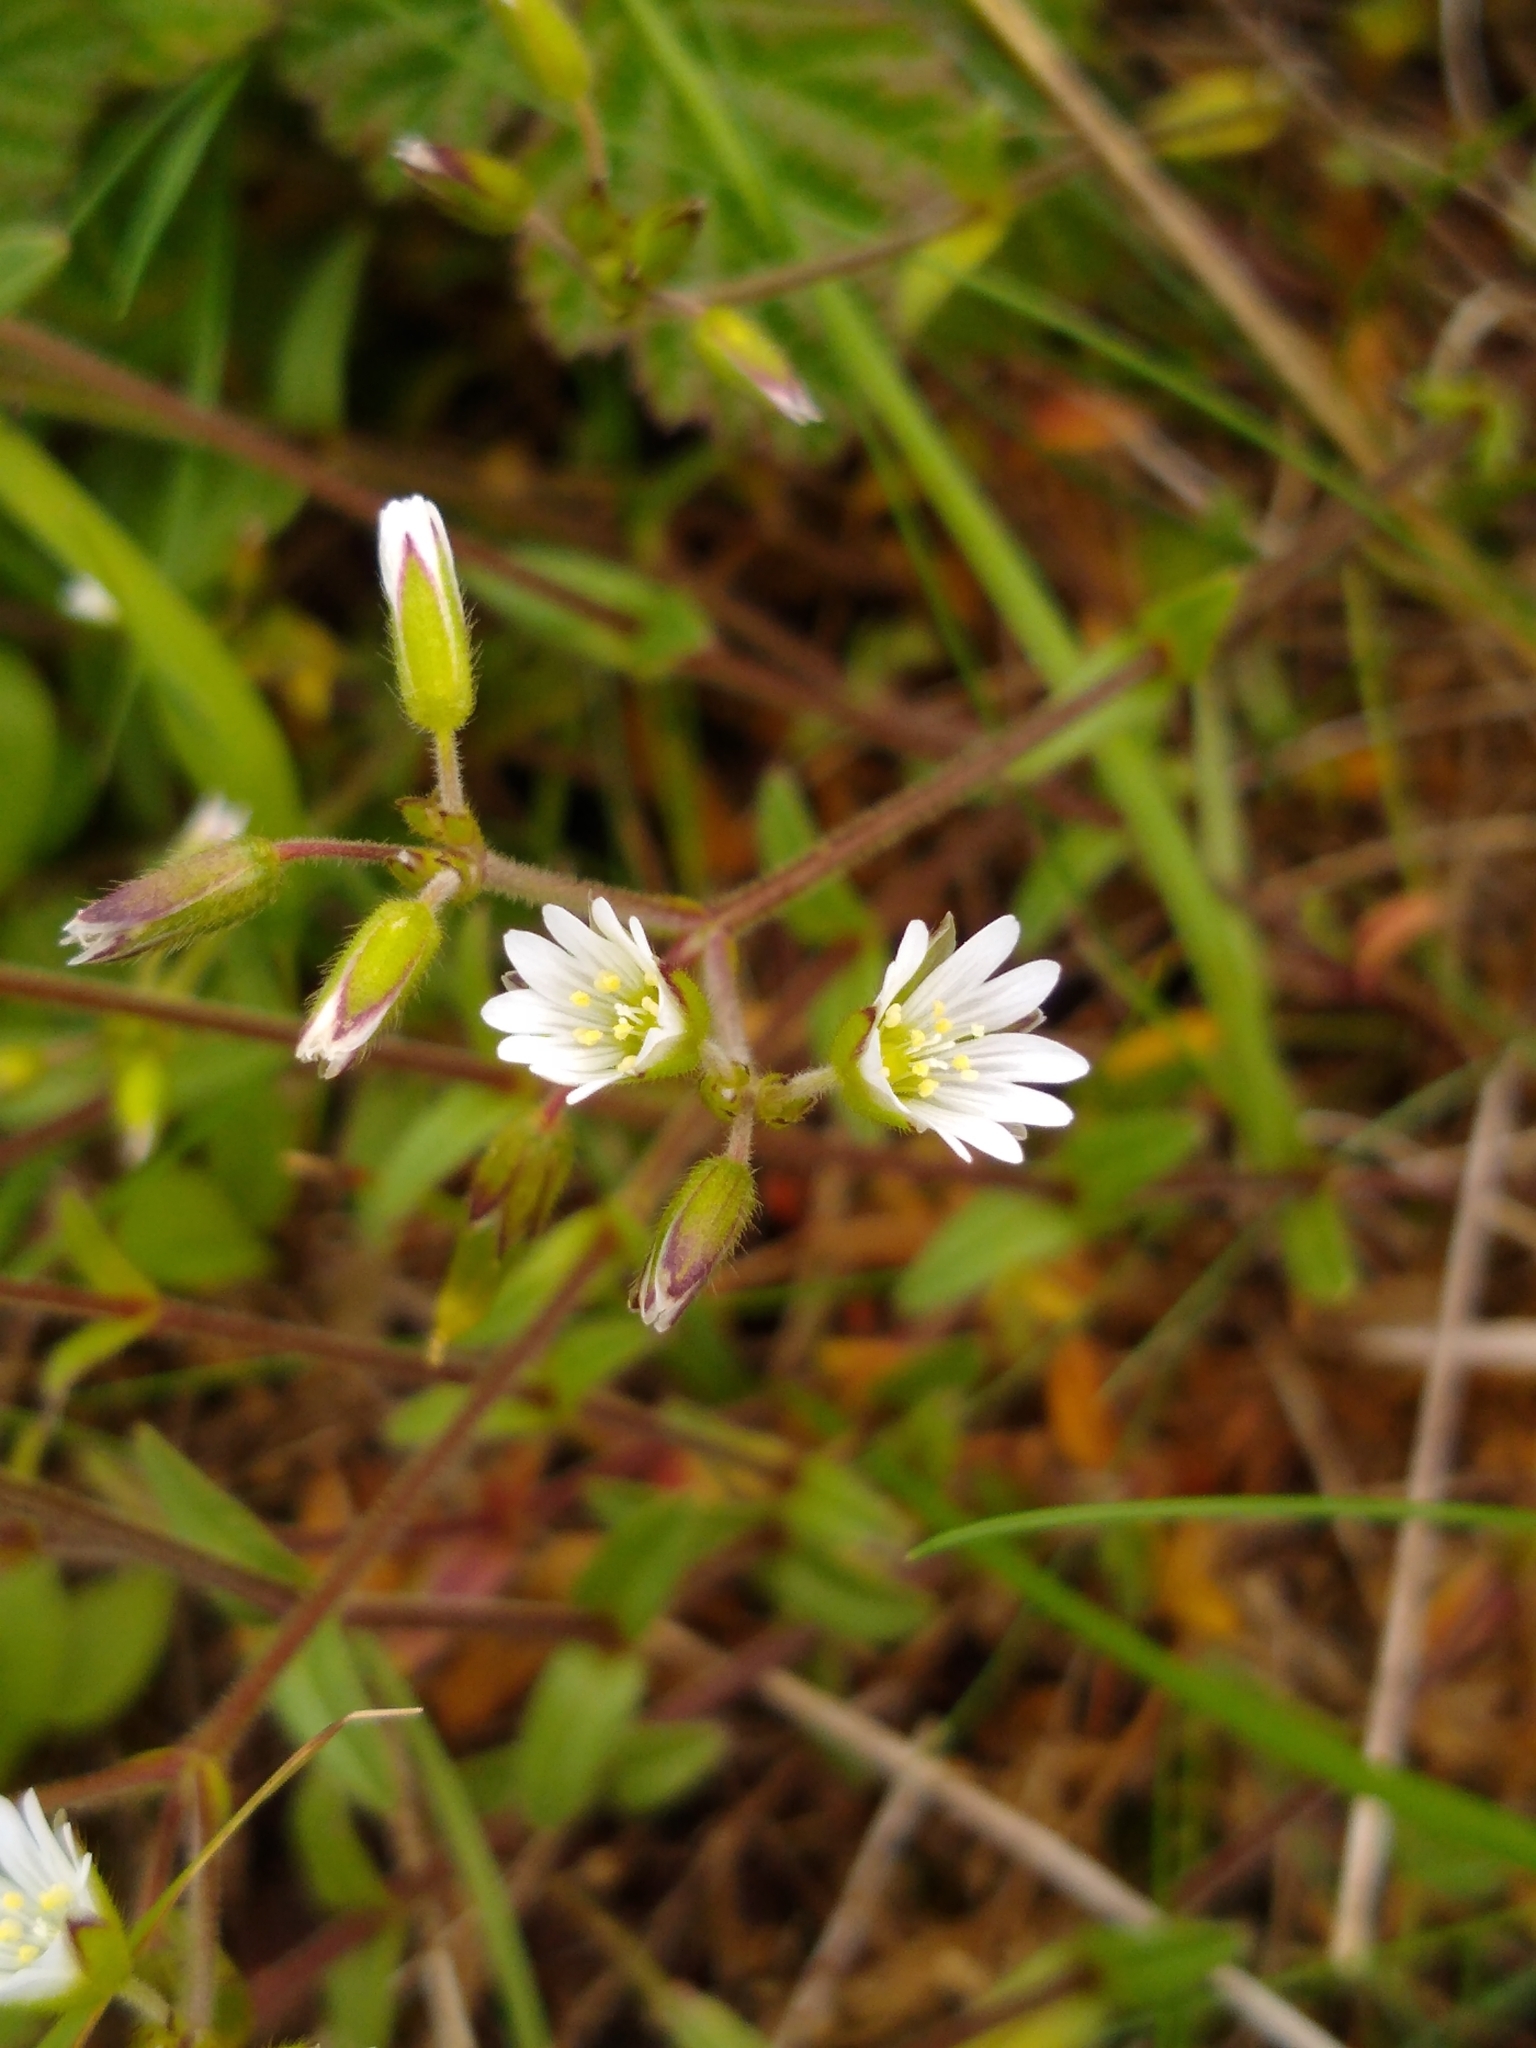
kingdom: Plantae
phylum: Tracheophyta
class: Magnoliopsida
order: Caryophyllales
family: Caryophyllaceae
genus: Cerastium
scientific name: Cerastium fontanum
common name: Common mouse-ear
